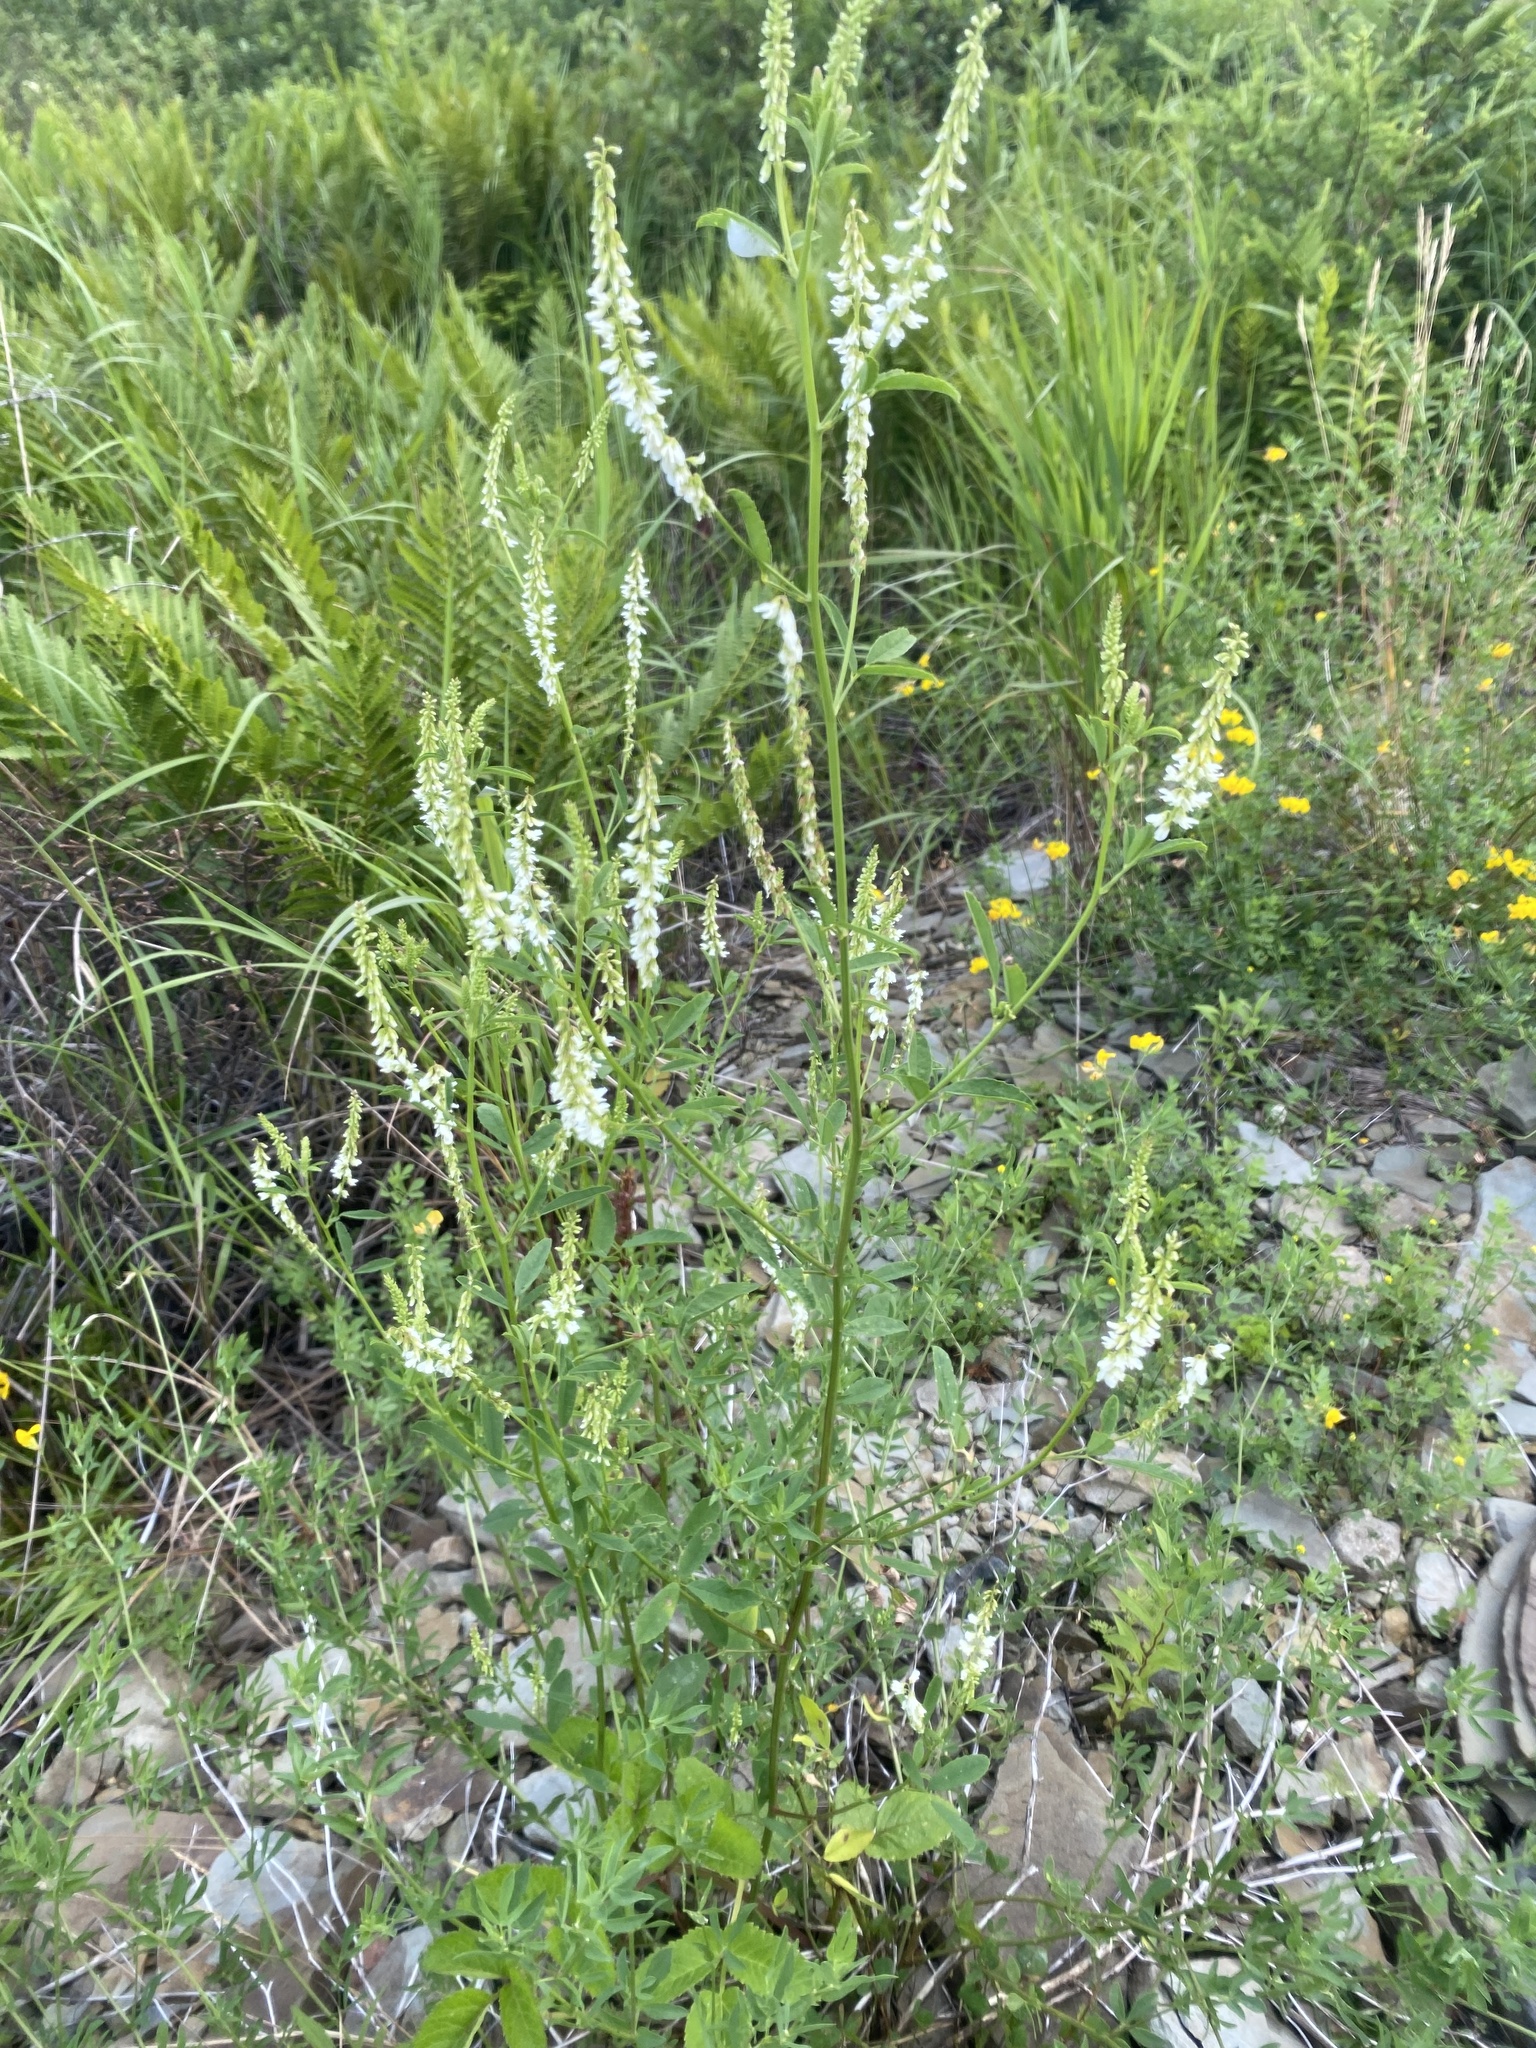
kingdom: Plantae
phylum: Tracheophyta
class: Magnoliopsida
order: Fabales
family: Fabaceae
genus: Melilotus
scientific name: Melilotus albus
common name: White melilot
